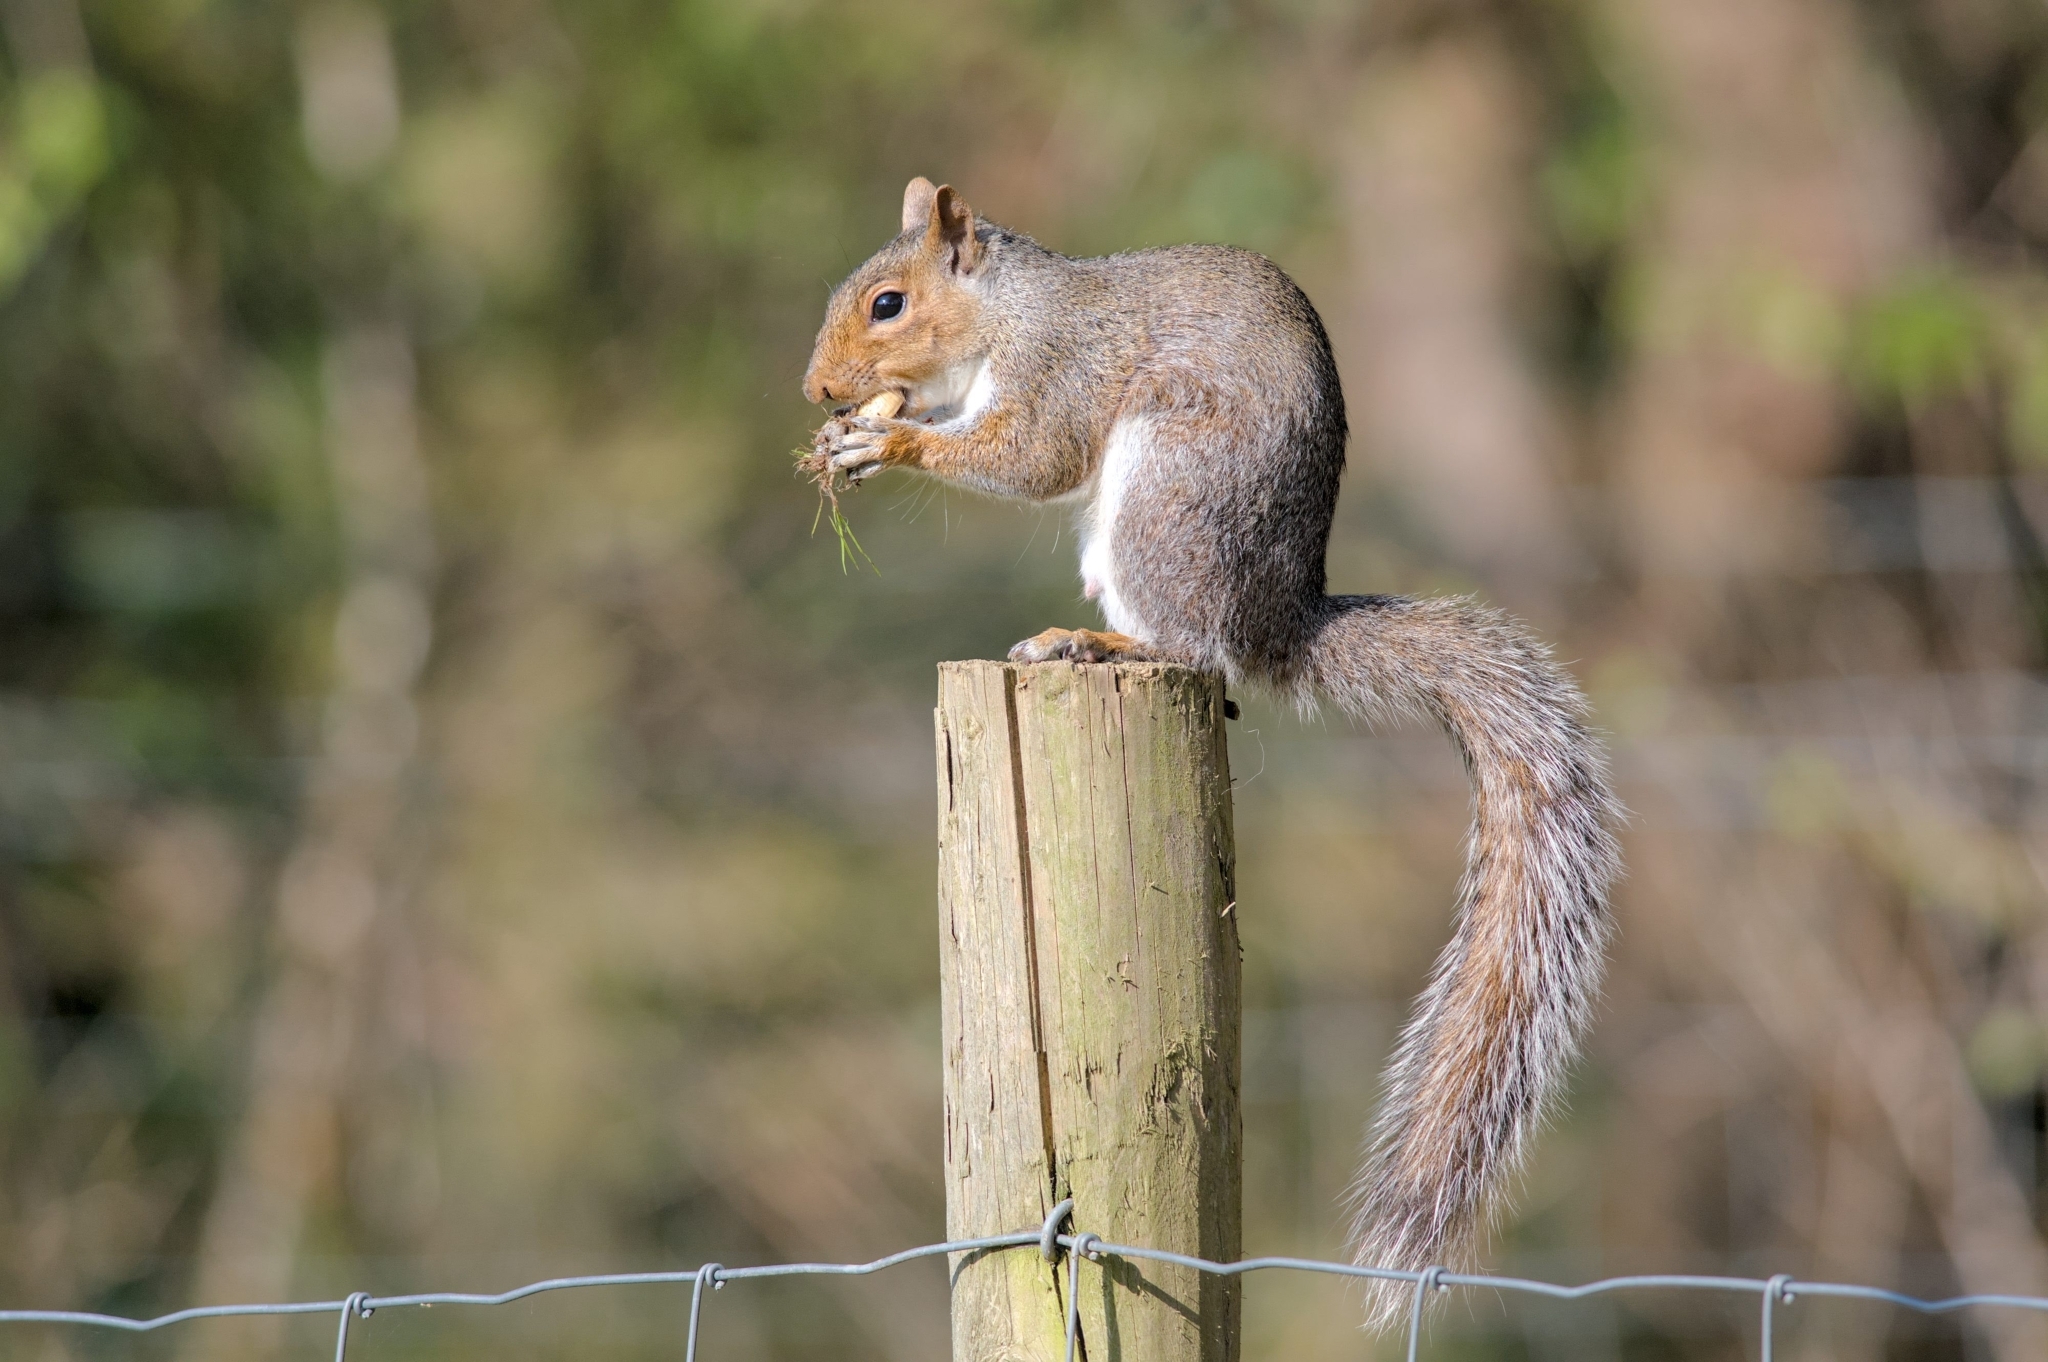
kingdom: Animalia
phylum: Chordata
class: Mammalia
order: Rodentia
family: Sciuridae
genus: Sciurus
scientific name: Sciurus carolinensis
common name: Eastern gray squirrel
